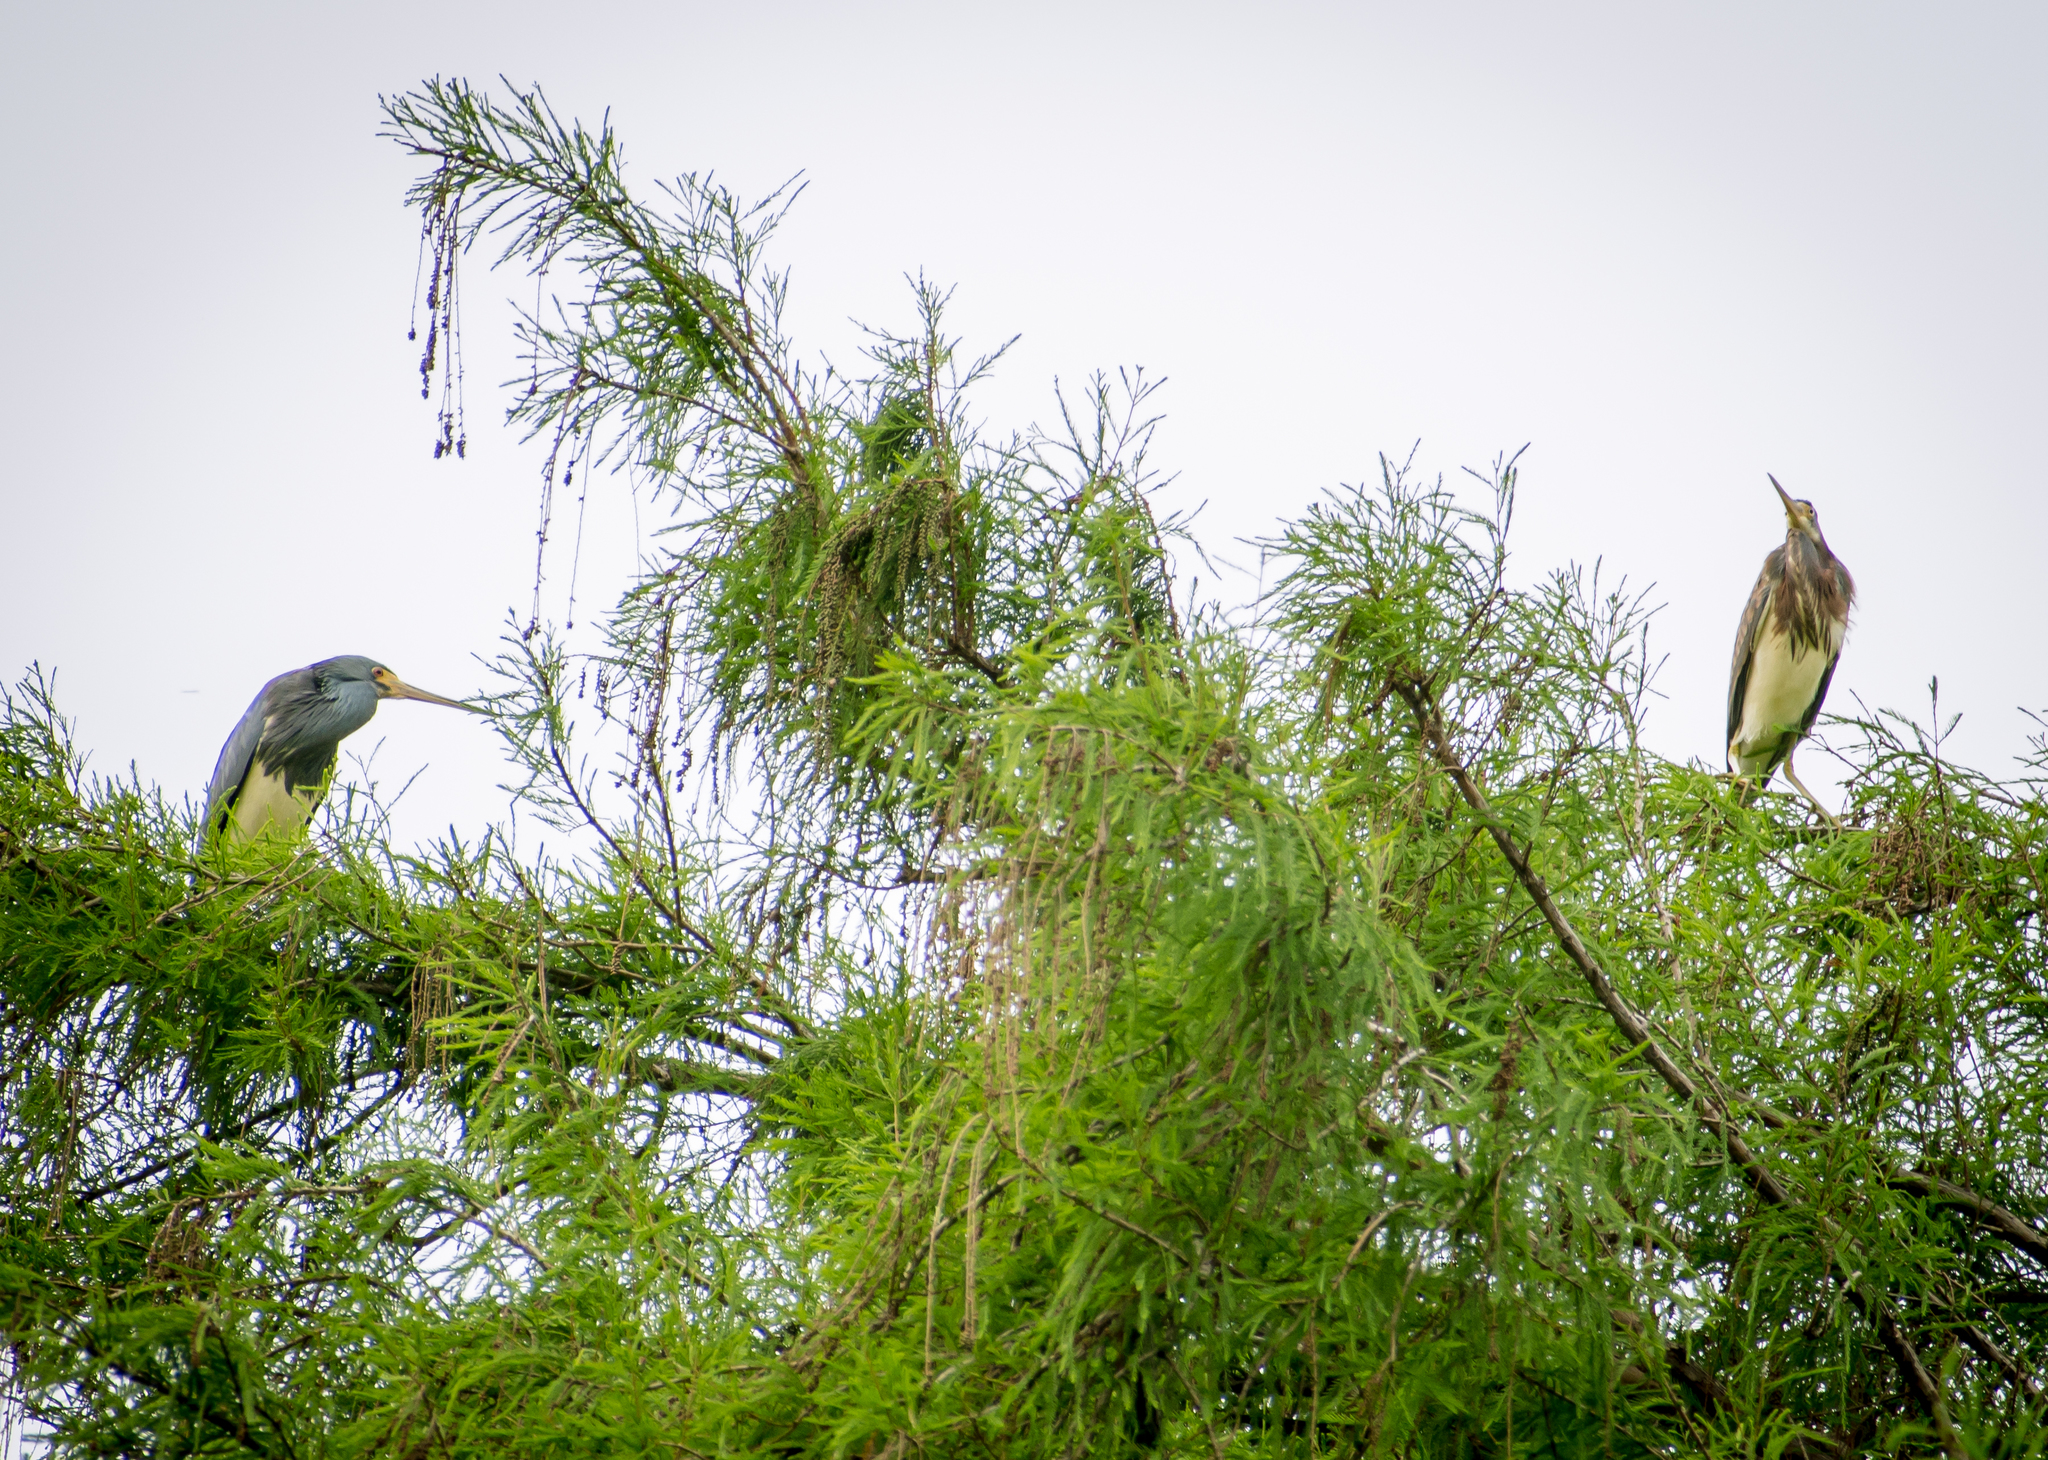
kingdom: Animalia
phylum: Chordata
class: Aves
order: Pelecaniformes
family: Ardeidae
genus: Egretta
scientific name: Egretta tricolor
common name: Tricolored heron
